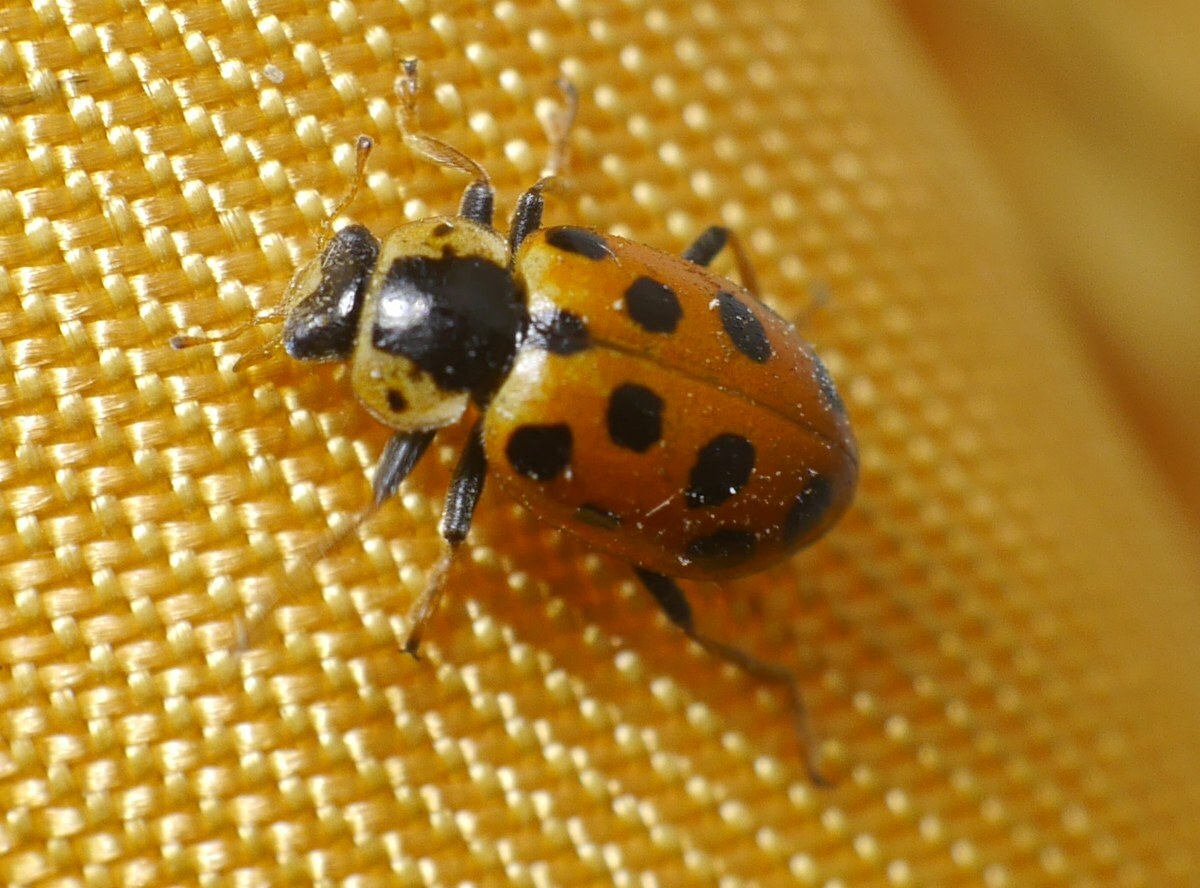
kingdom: Animalia
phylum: Arthropoda
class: Insecta
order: Coleoptera
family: Coccinellidae
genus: Hippodamia
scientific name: Hippodamia tredecimpunctata
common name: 13-spot ladybird
